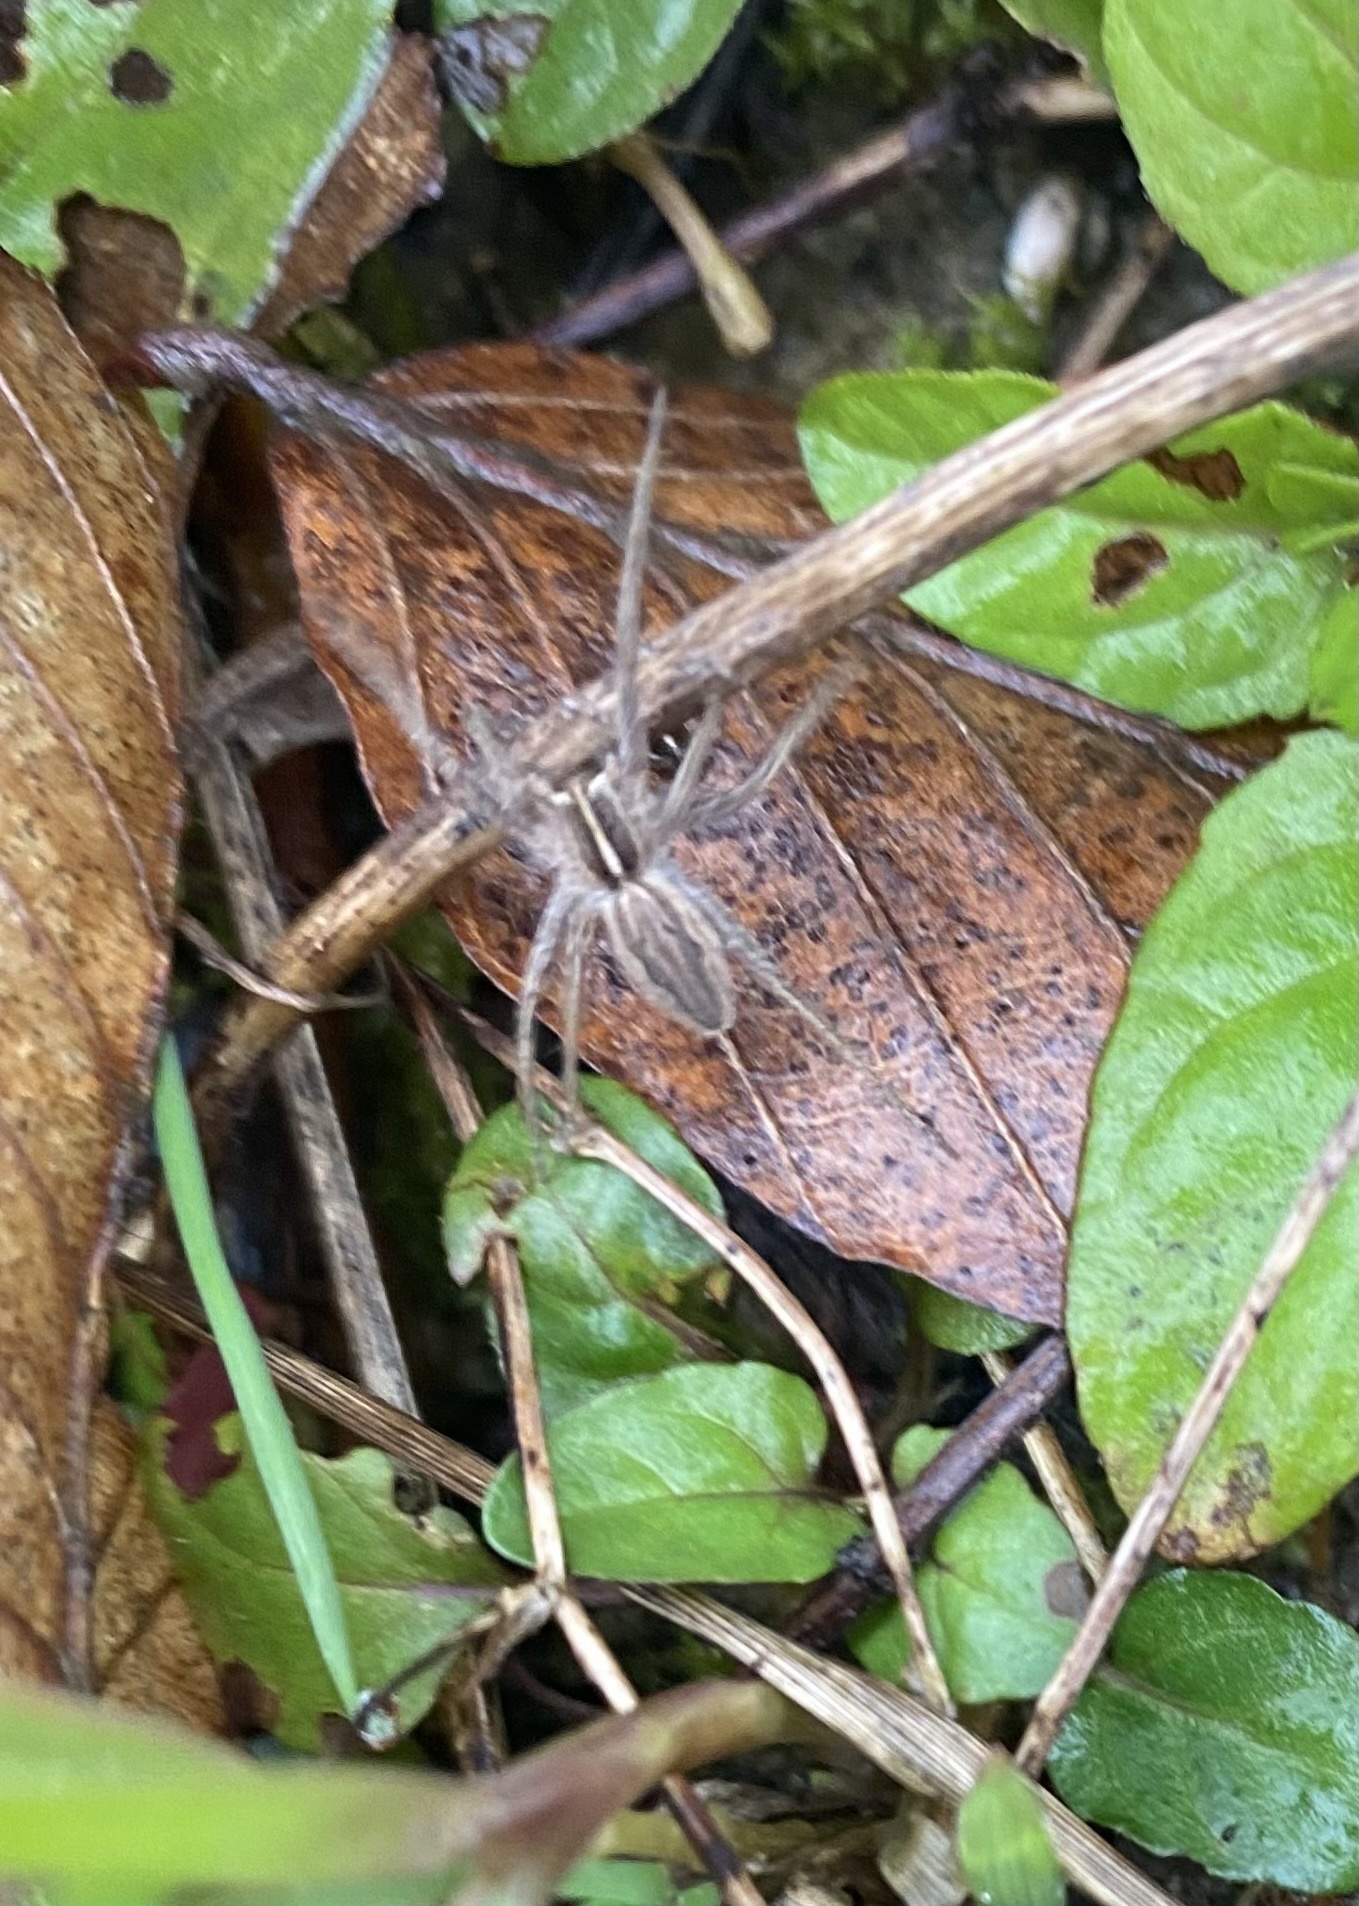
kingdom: Animalia
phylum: Arthropoda
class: Arachnida
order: Araneae
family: Pisauridae
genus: Pisaura
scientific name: Pisaura
